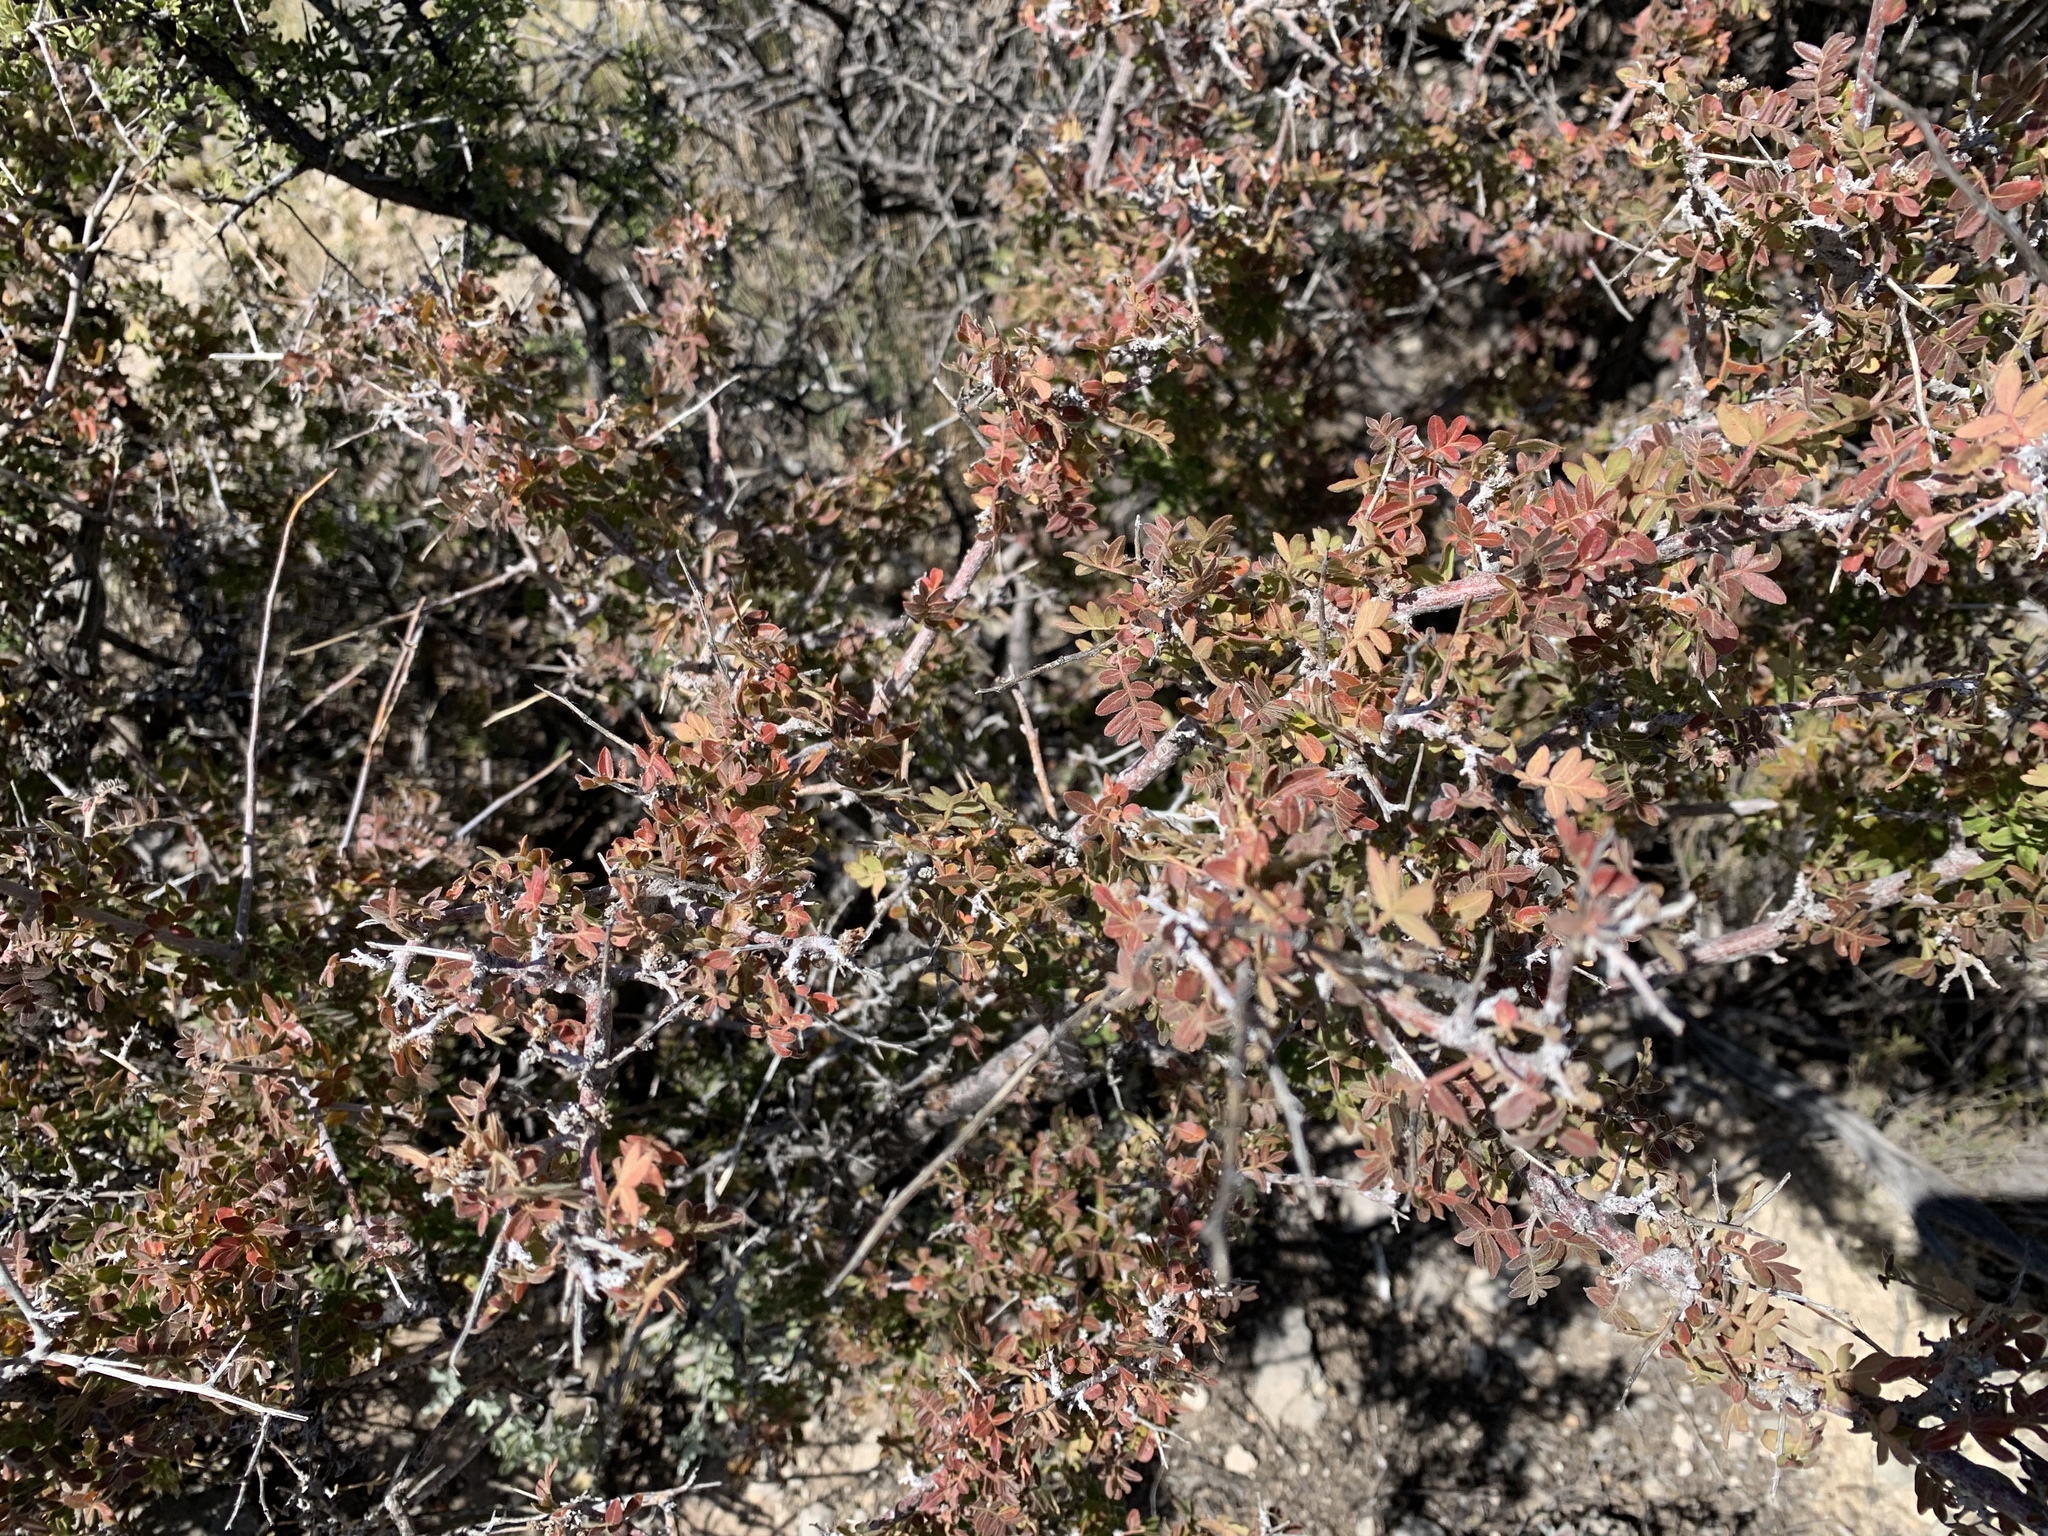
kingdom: Plantae
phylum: Tracheophyta
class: Magnoliopsida
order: Sapindales
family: Anacardiaceae
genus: Rhus
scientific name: Rhus microphylla
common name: Desert sumac
